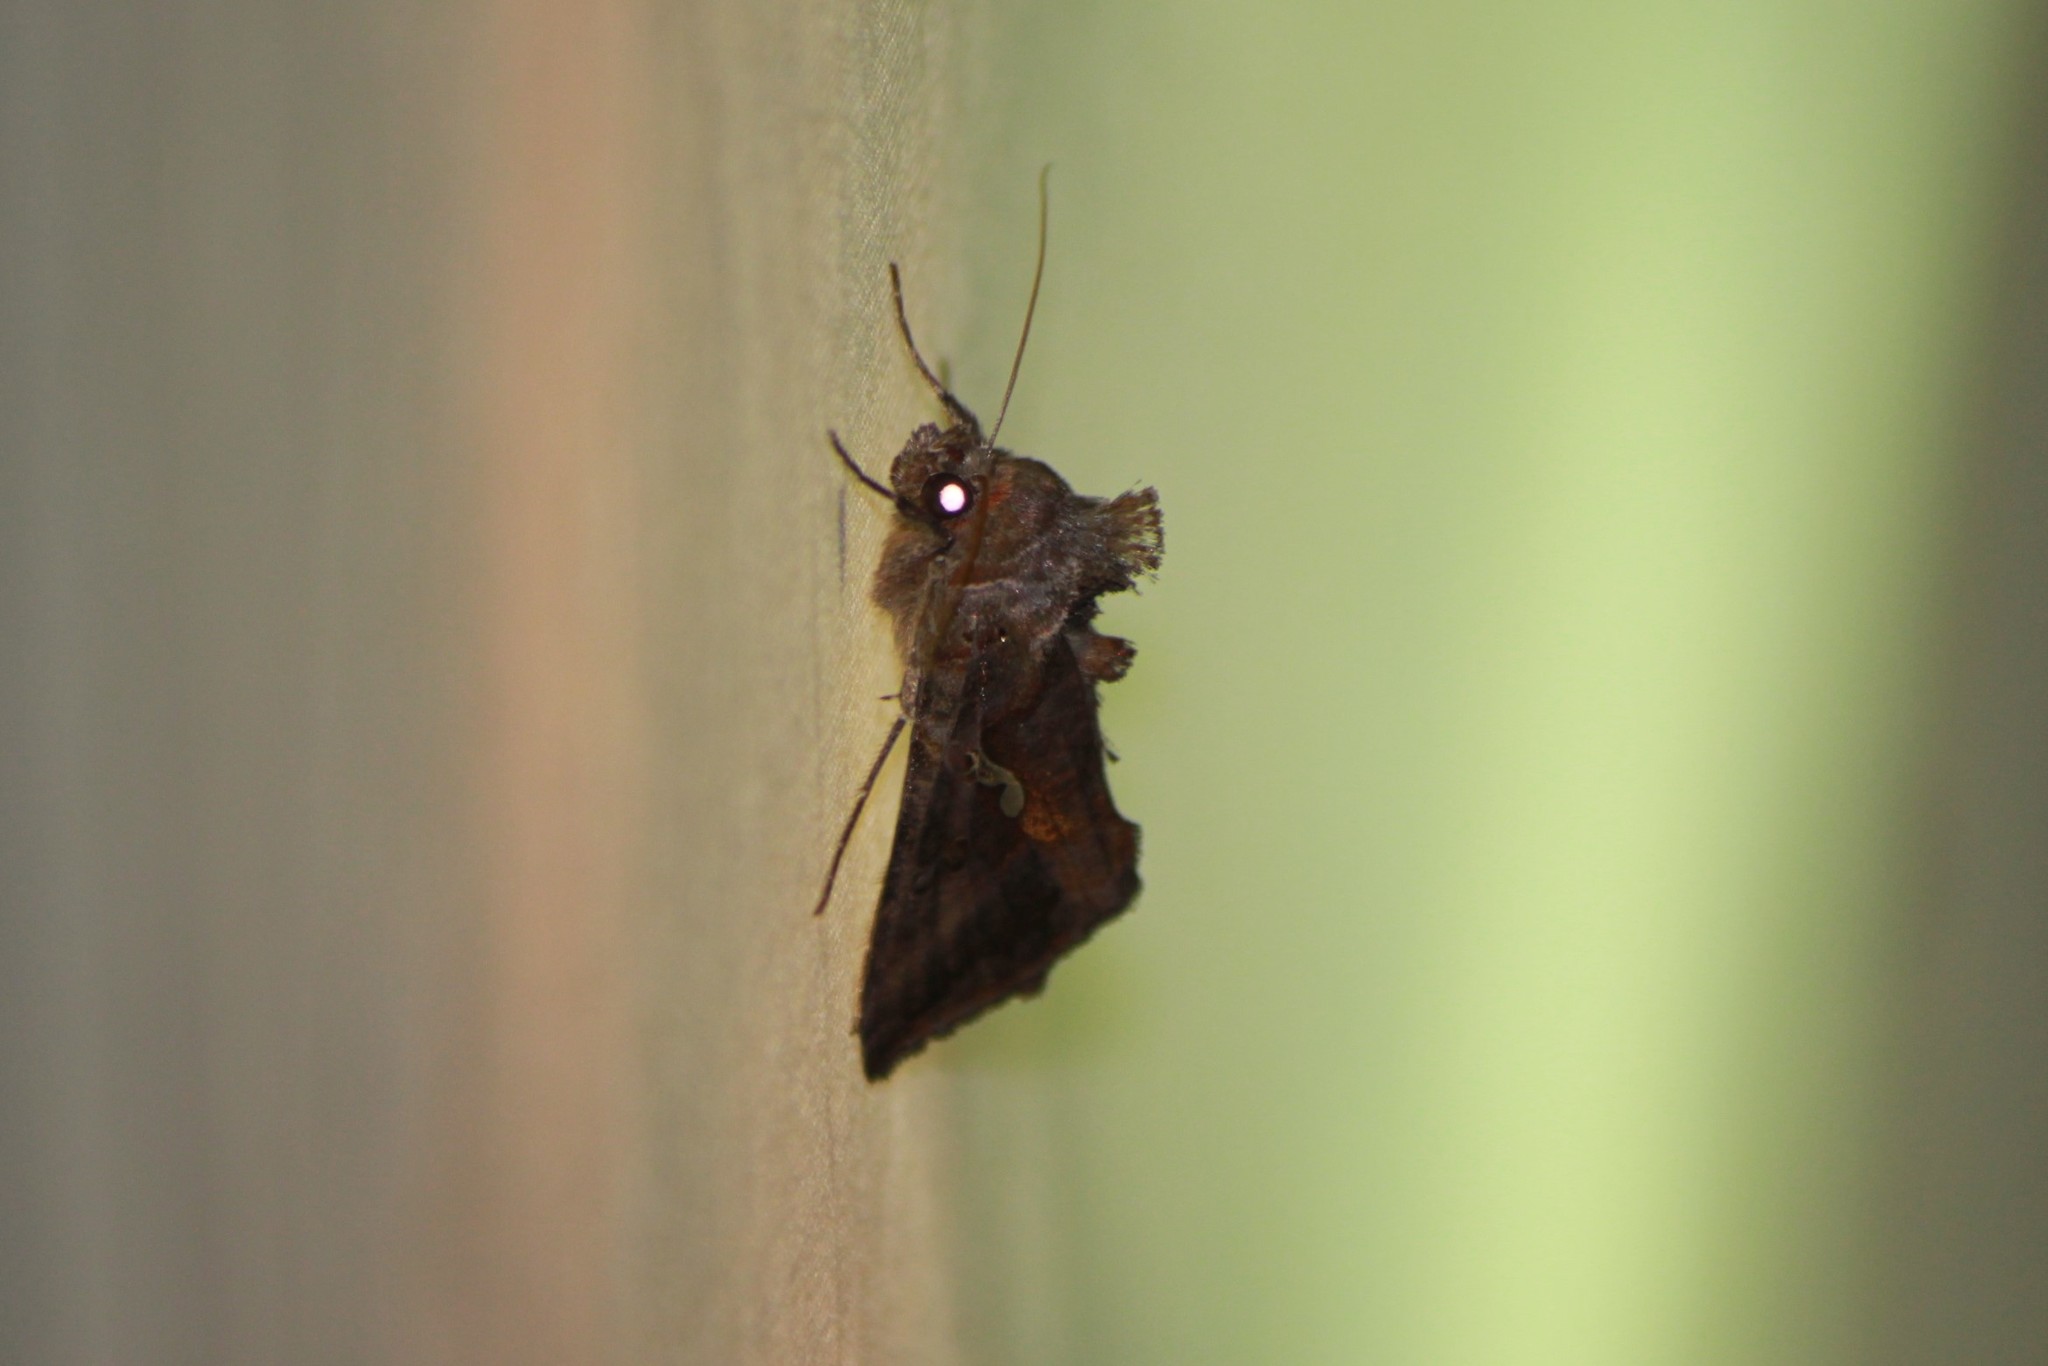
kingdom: Animalia
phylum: Arthropoda
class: Insecta
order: Lepidoptera
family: Noctuidae
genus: Autographa
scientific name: Autographa precationis
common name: Common looper moth
